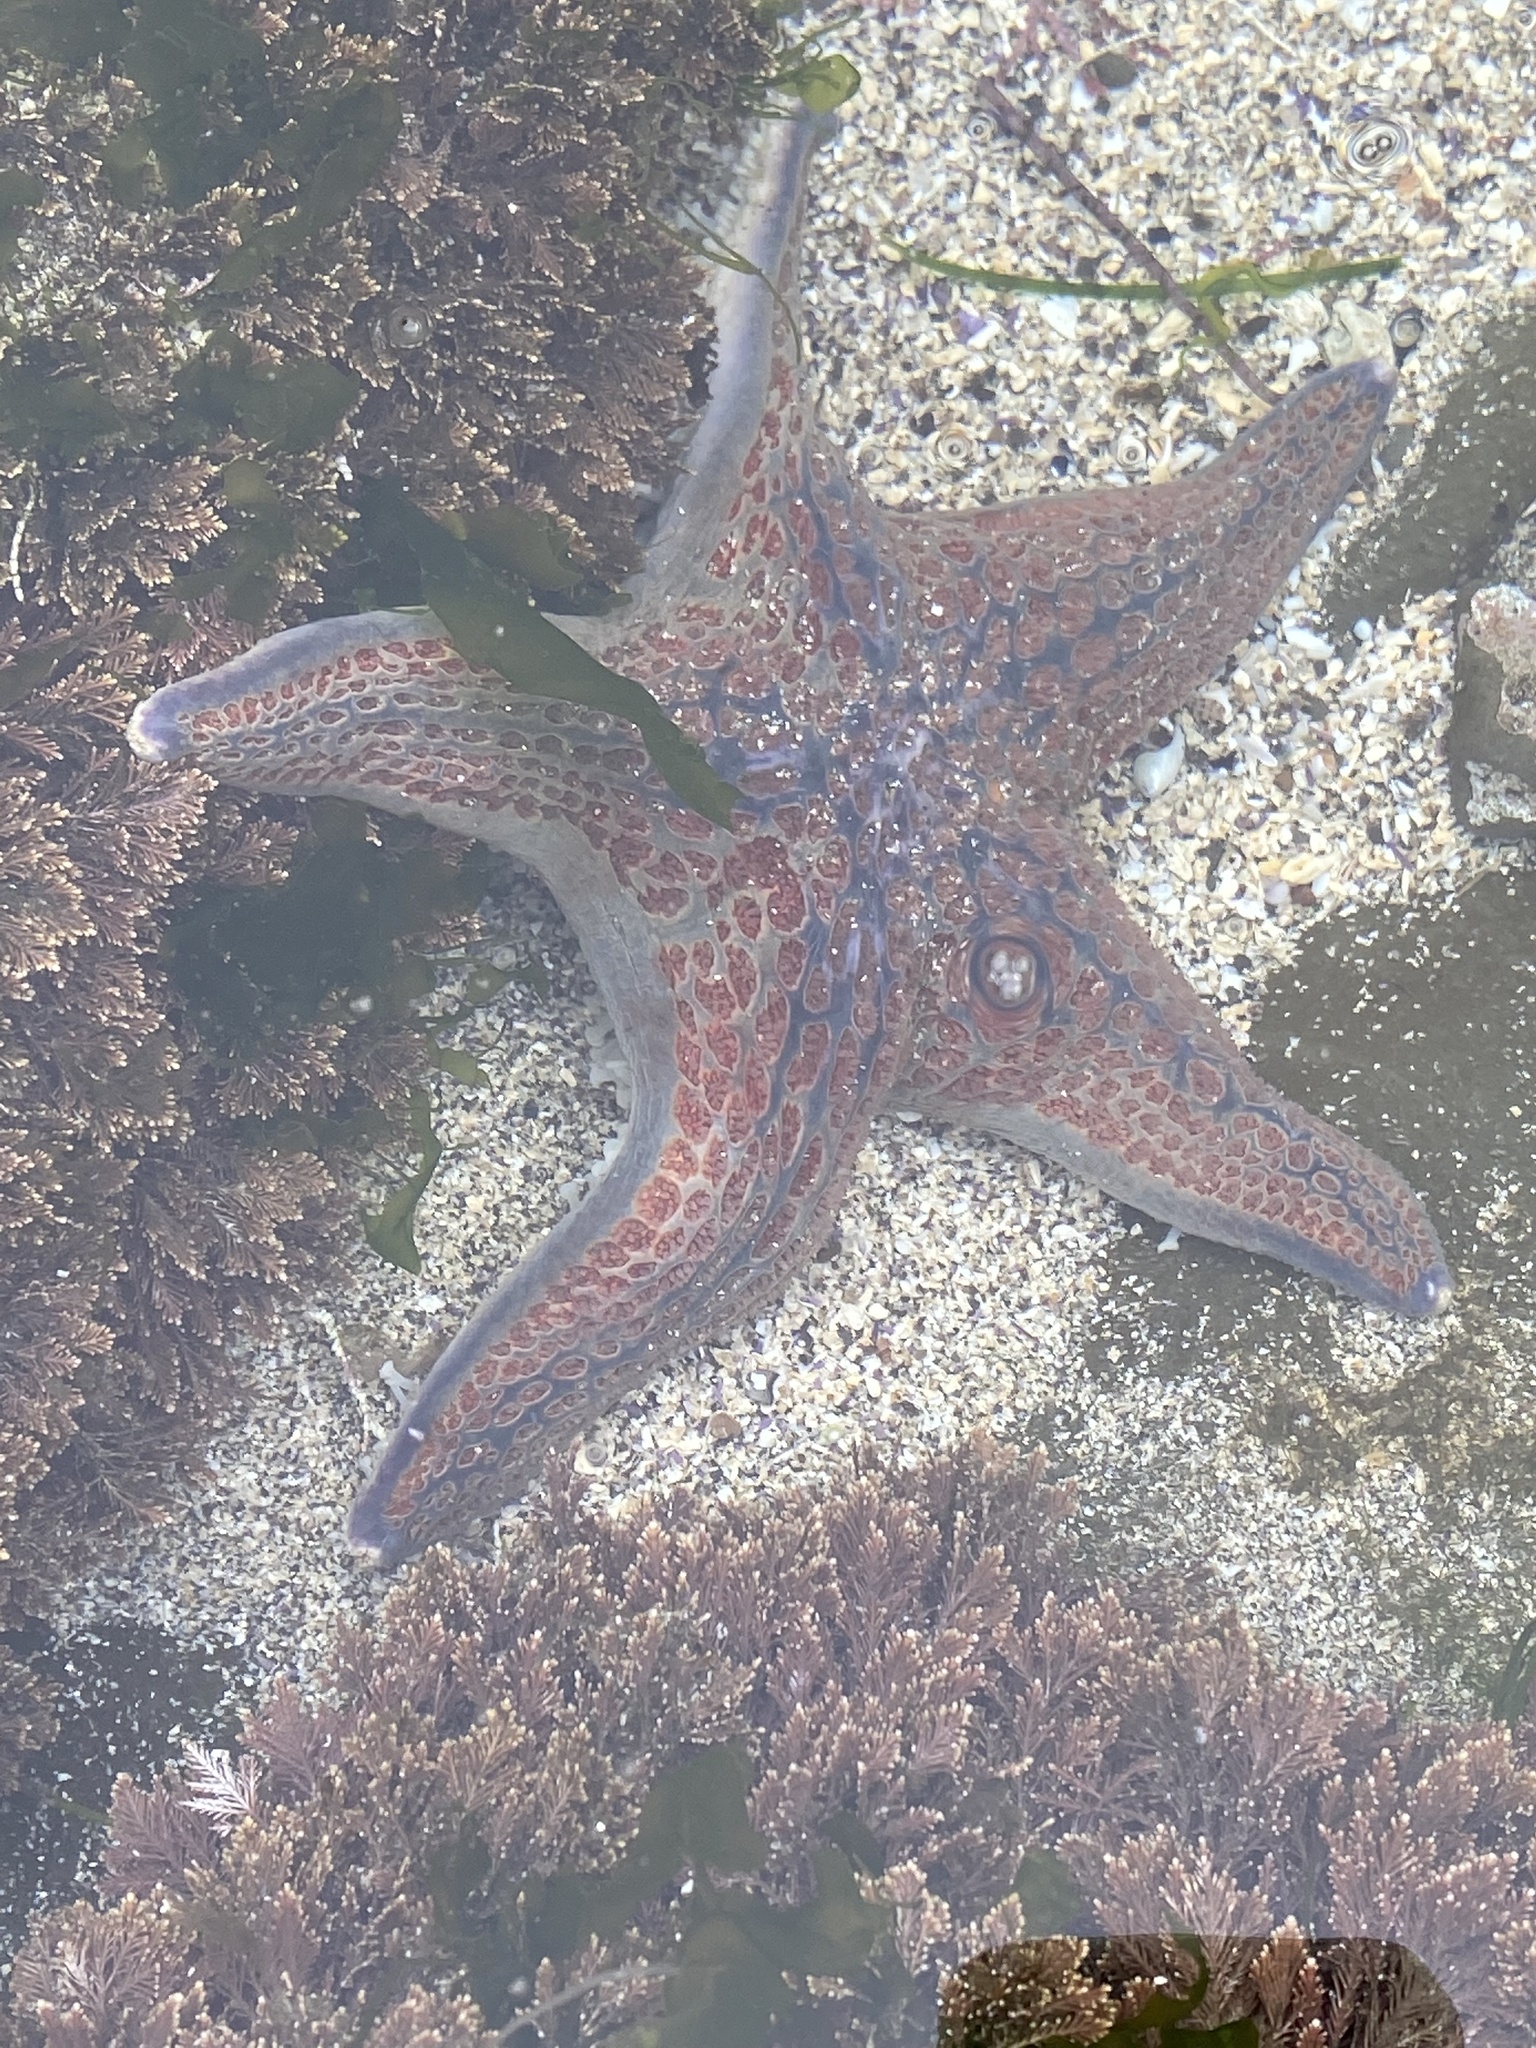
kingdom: Animalia
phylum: Echinodermata
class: Asteroidea
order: Valvatida
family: Asteropseidae
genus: Dermasterias
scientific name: Dermasterias imbricata
